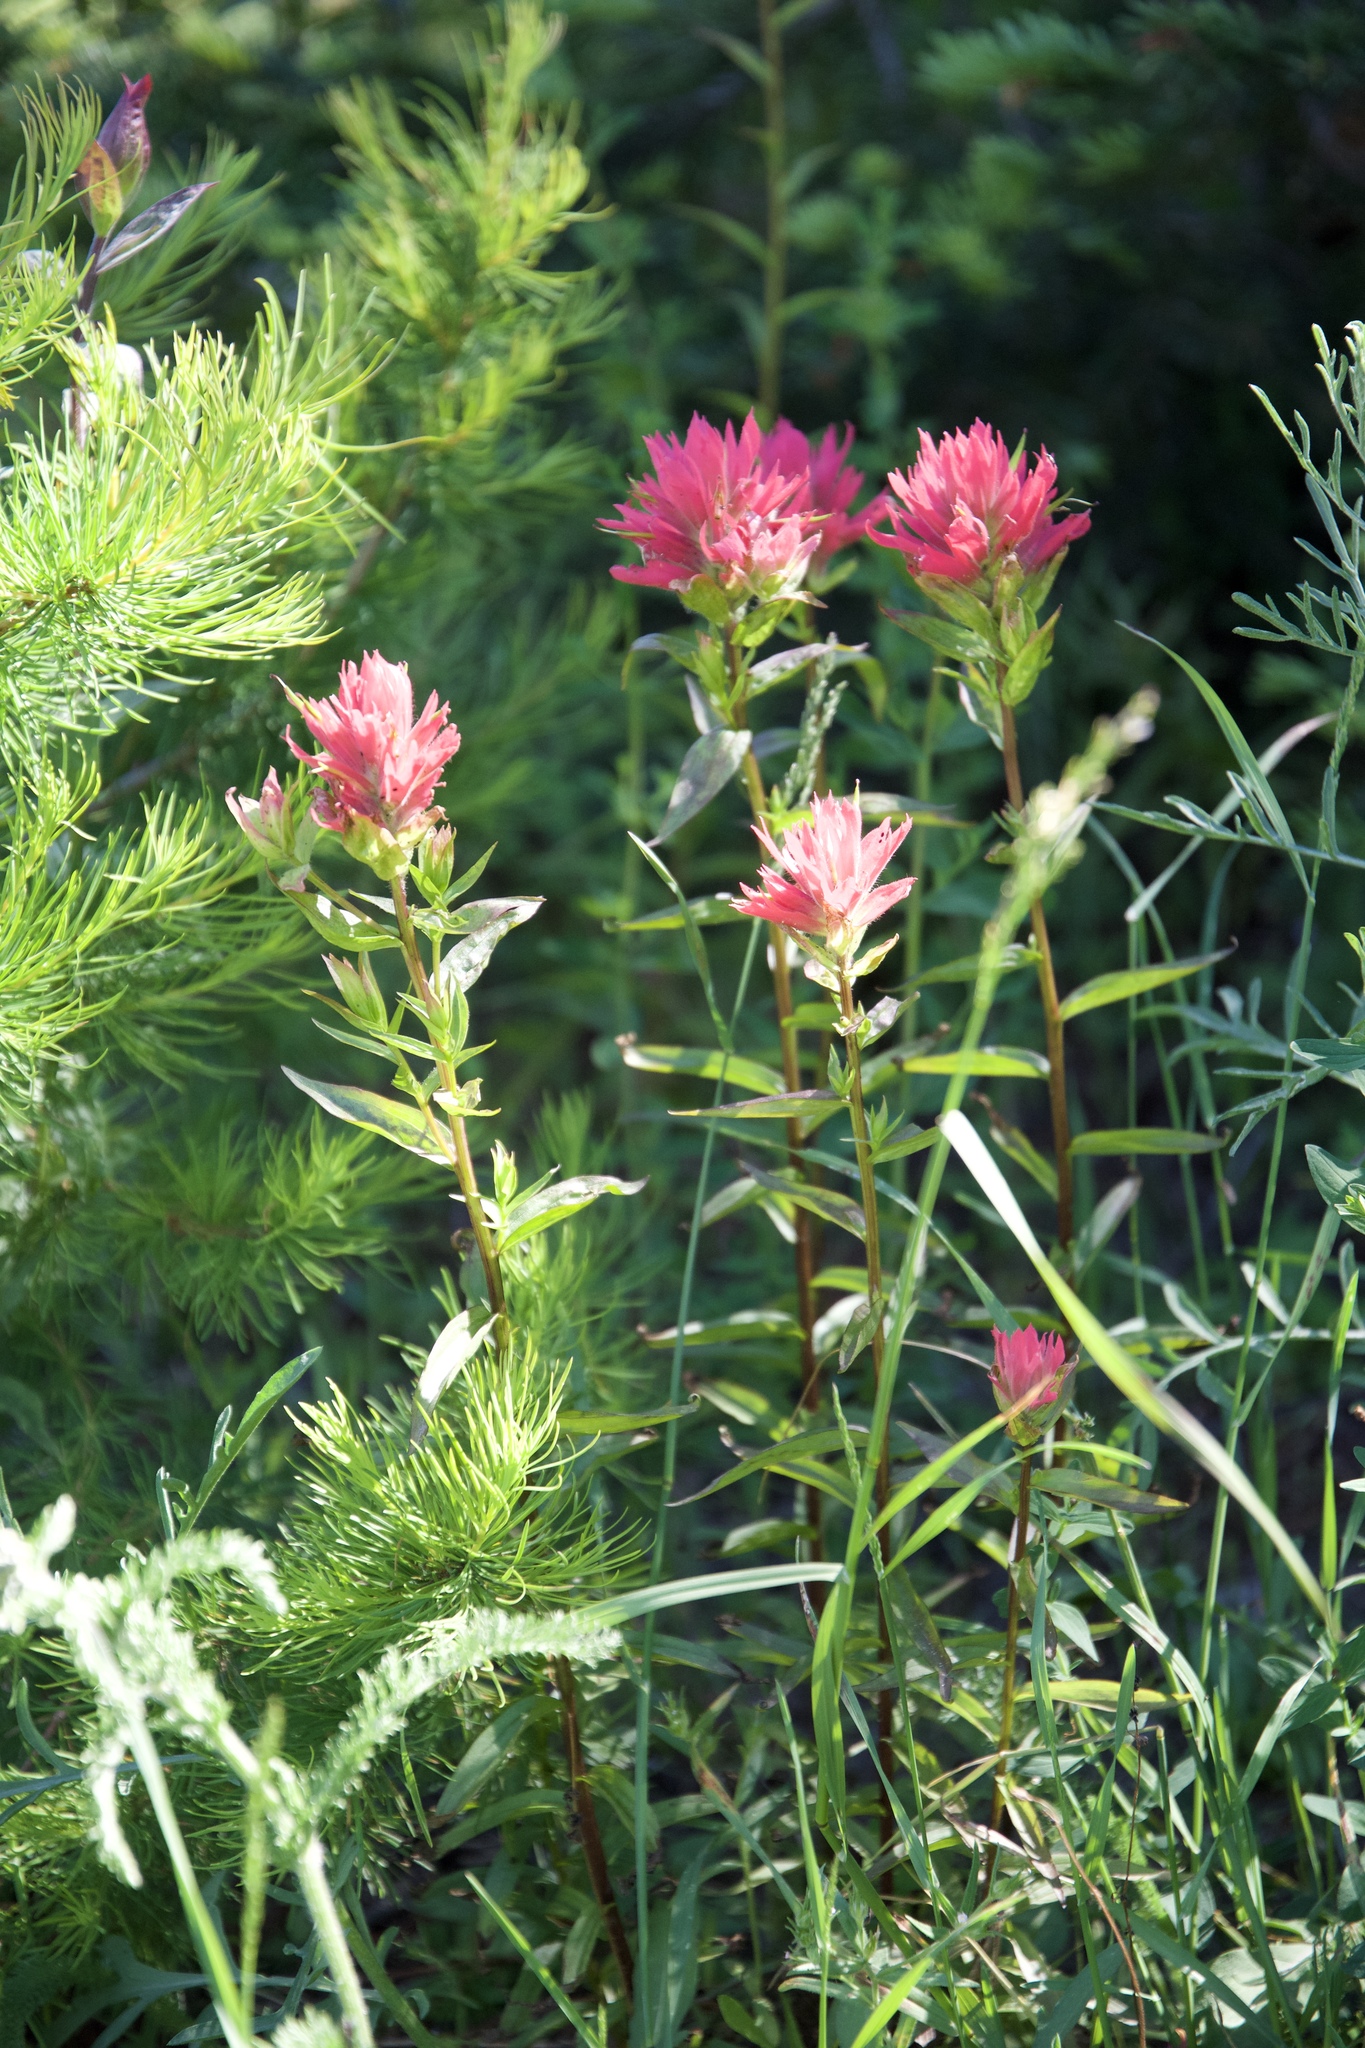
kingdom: Plantae
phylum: Tracheophyta
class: Magnoliopsida
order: Lamiales
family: Orobanchaceae
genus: Castilleja
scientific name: Castilleja miniata
